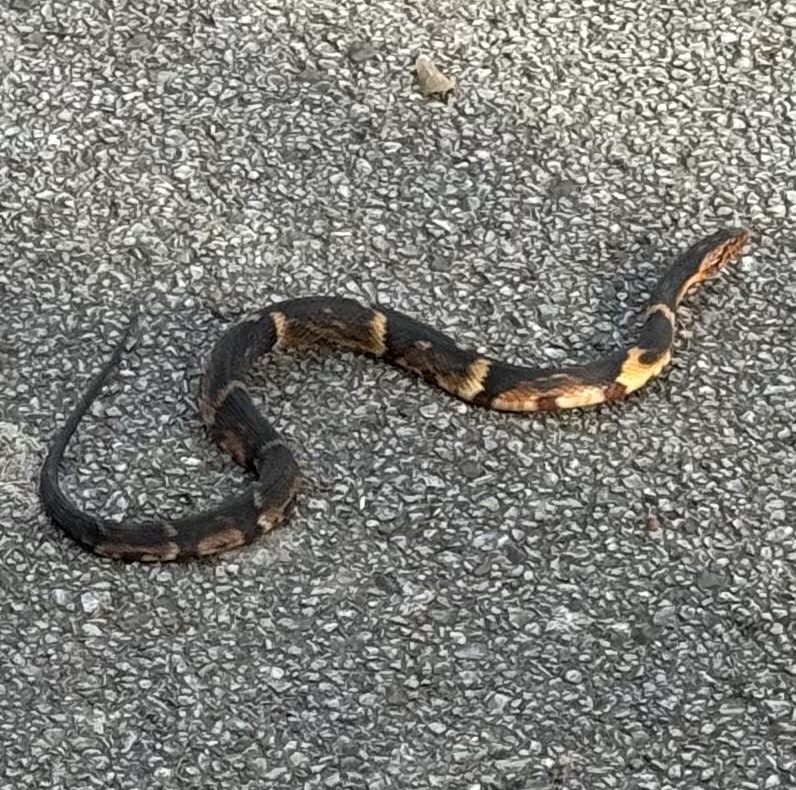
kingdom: Animalia
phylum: Chordata
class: Squamata
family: Colubridae
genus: Nerodia
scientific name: Nerodia fasciata
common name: Southern water snake
